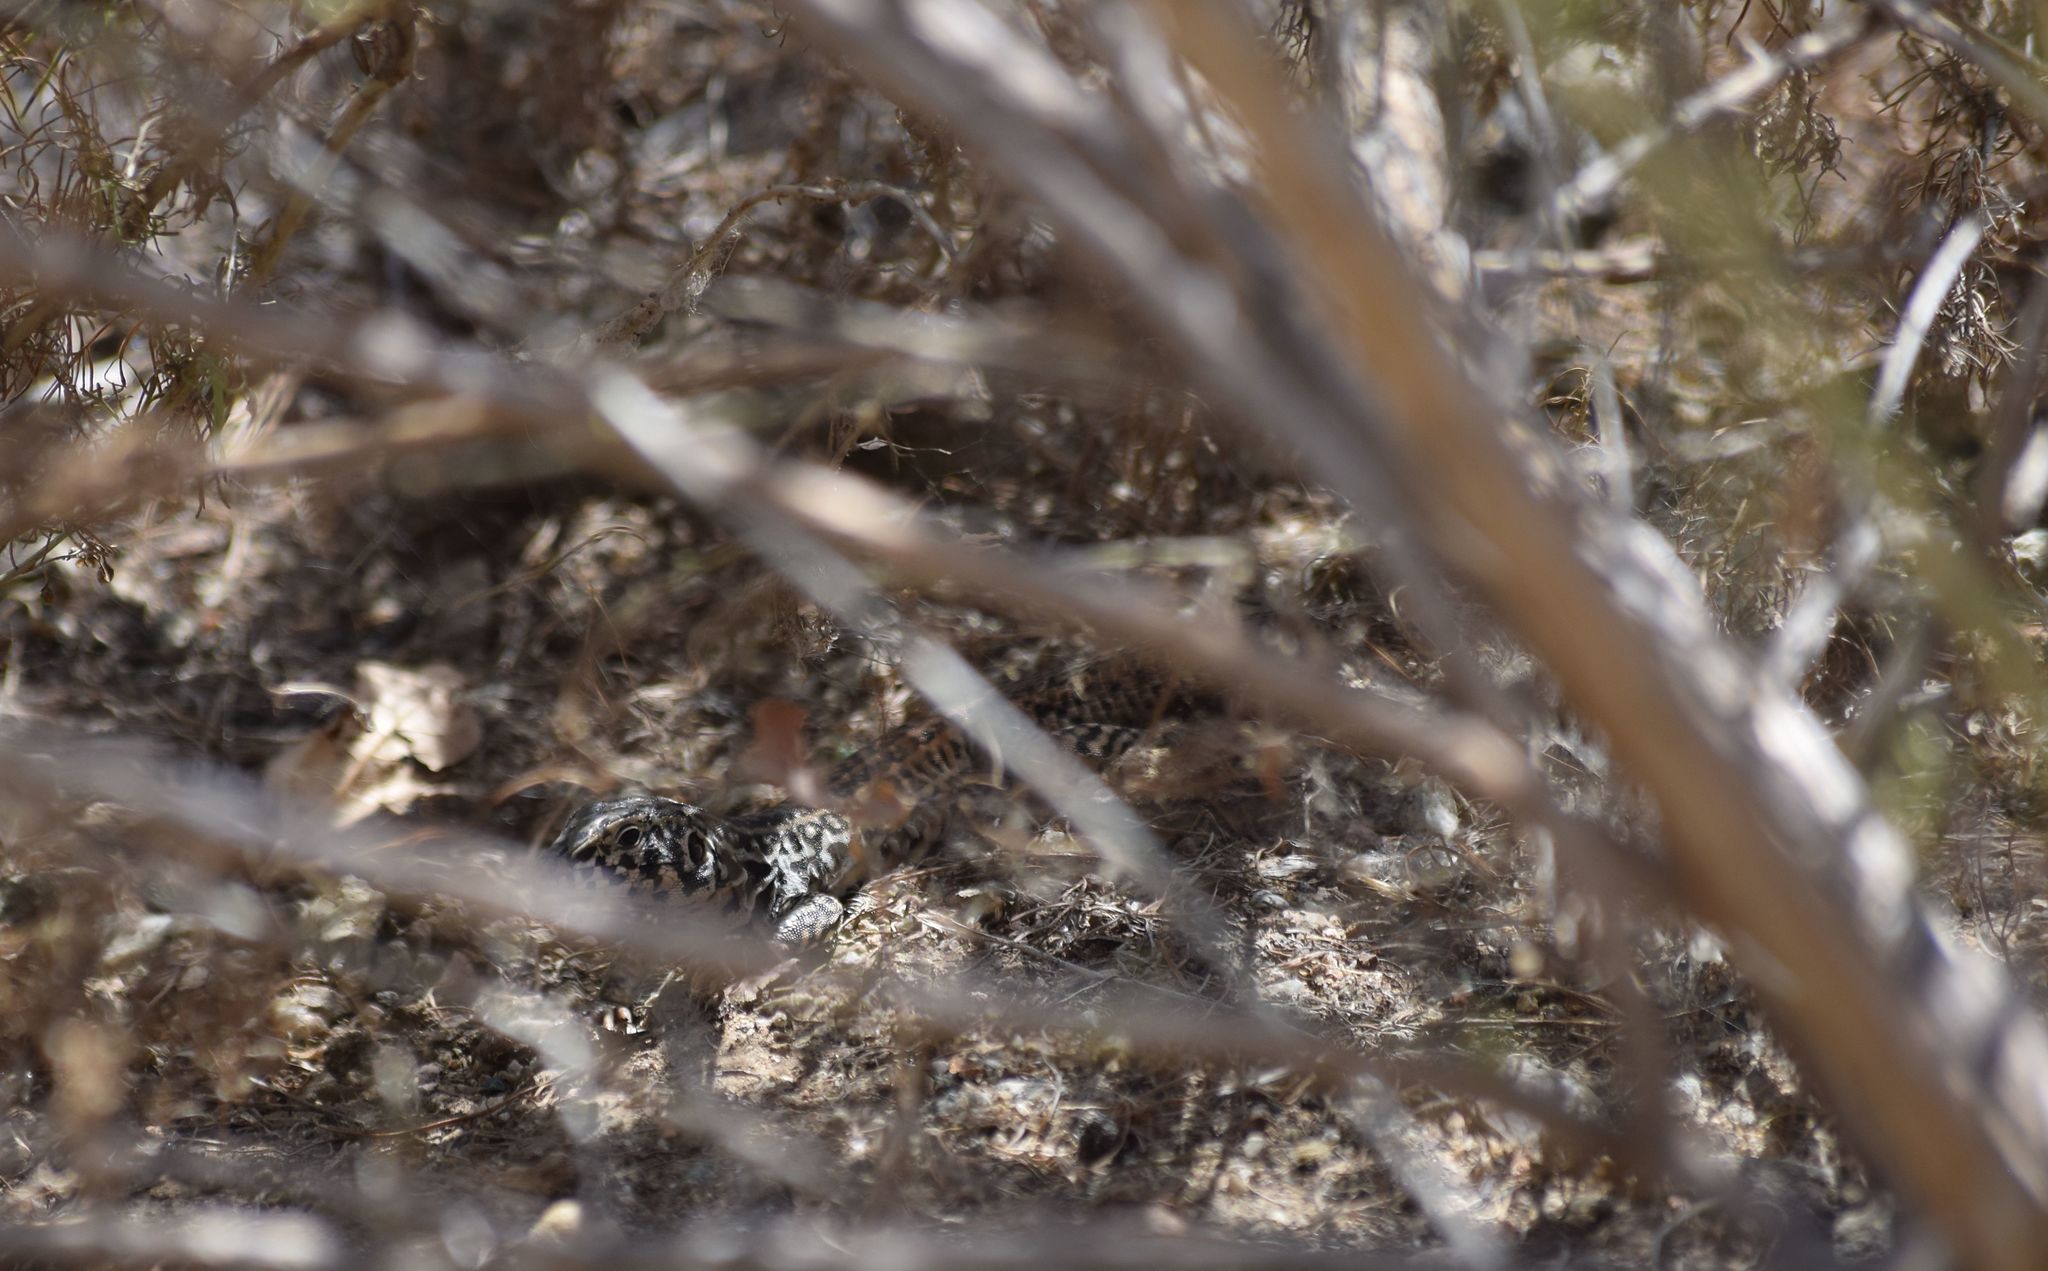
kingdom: Animalia
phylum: Chordata
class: Squamata
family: Teiidae
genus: Aspidoscelis
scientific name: Aspidoscelis tigris
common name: Tiger whiptail
